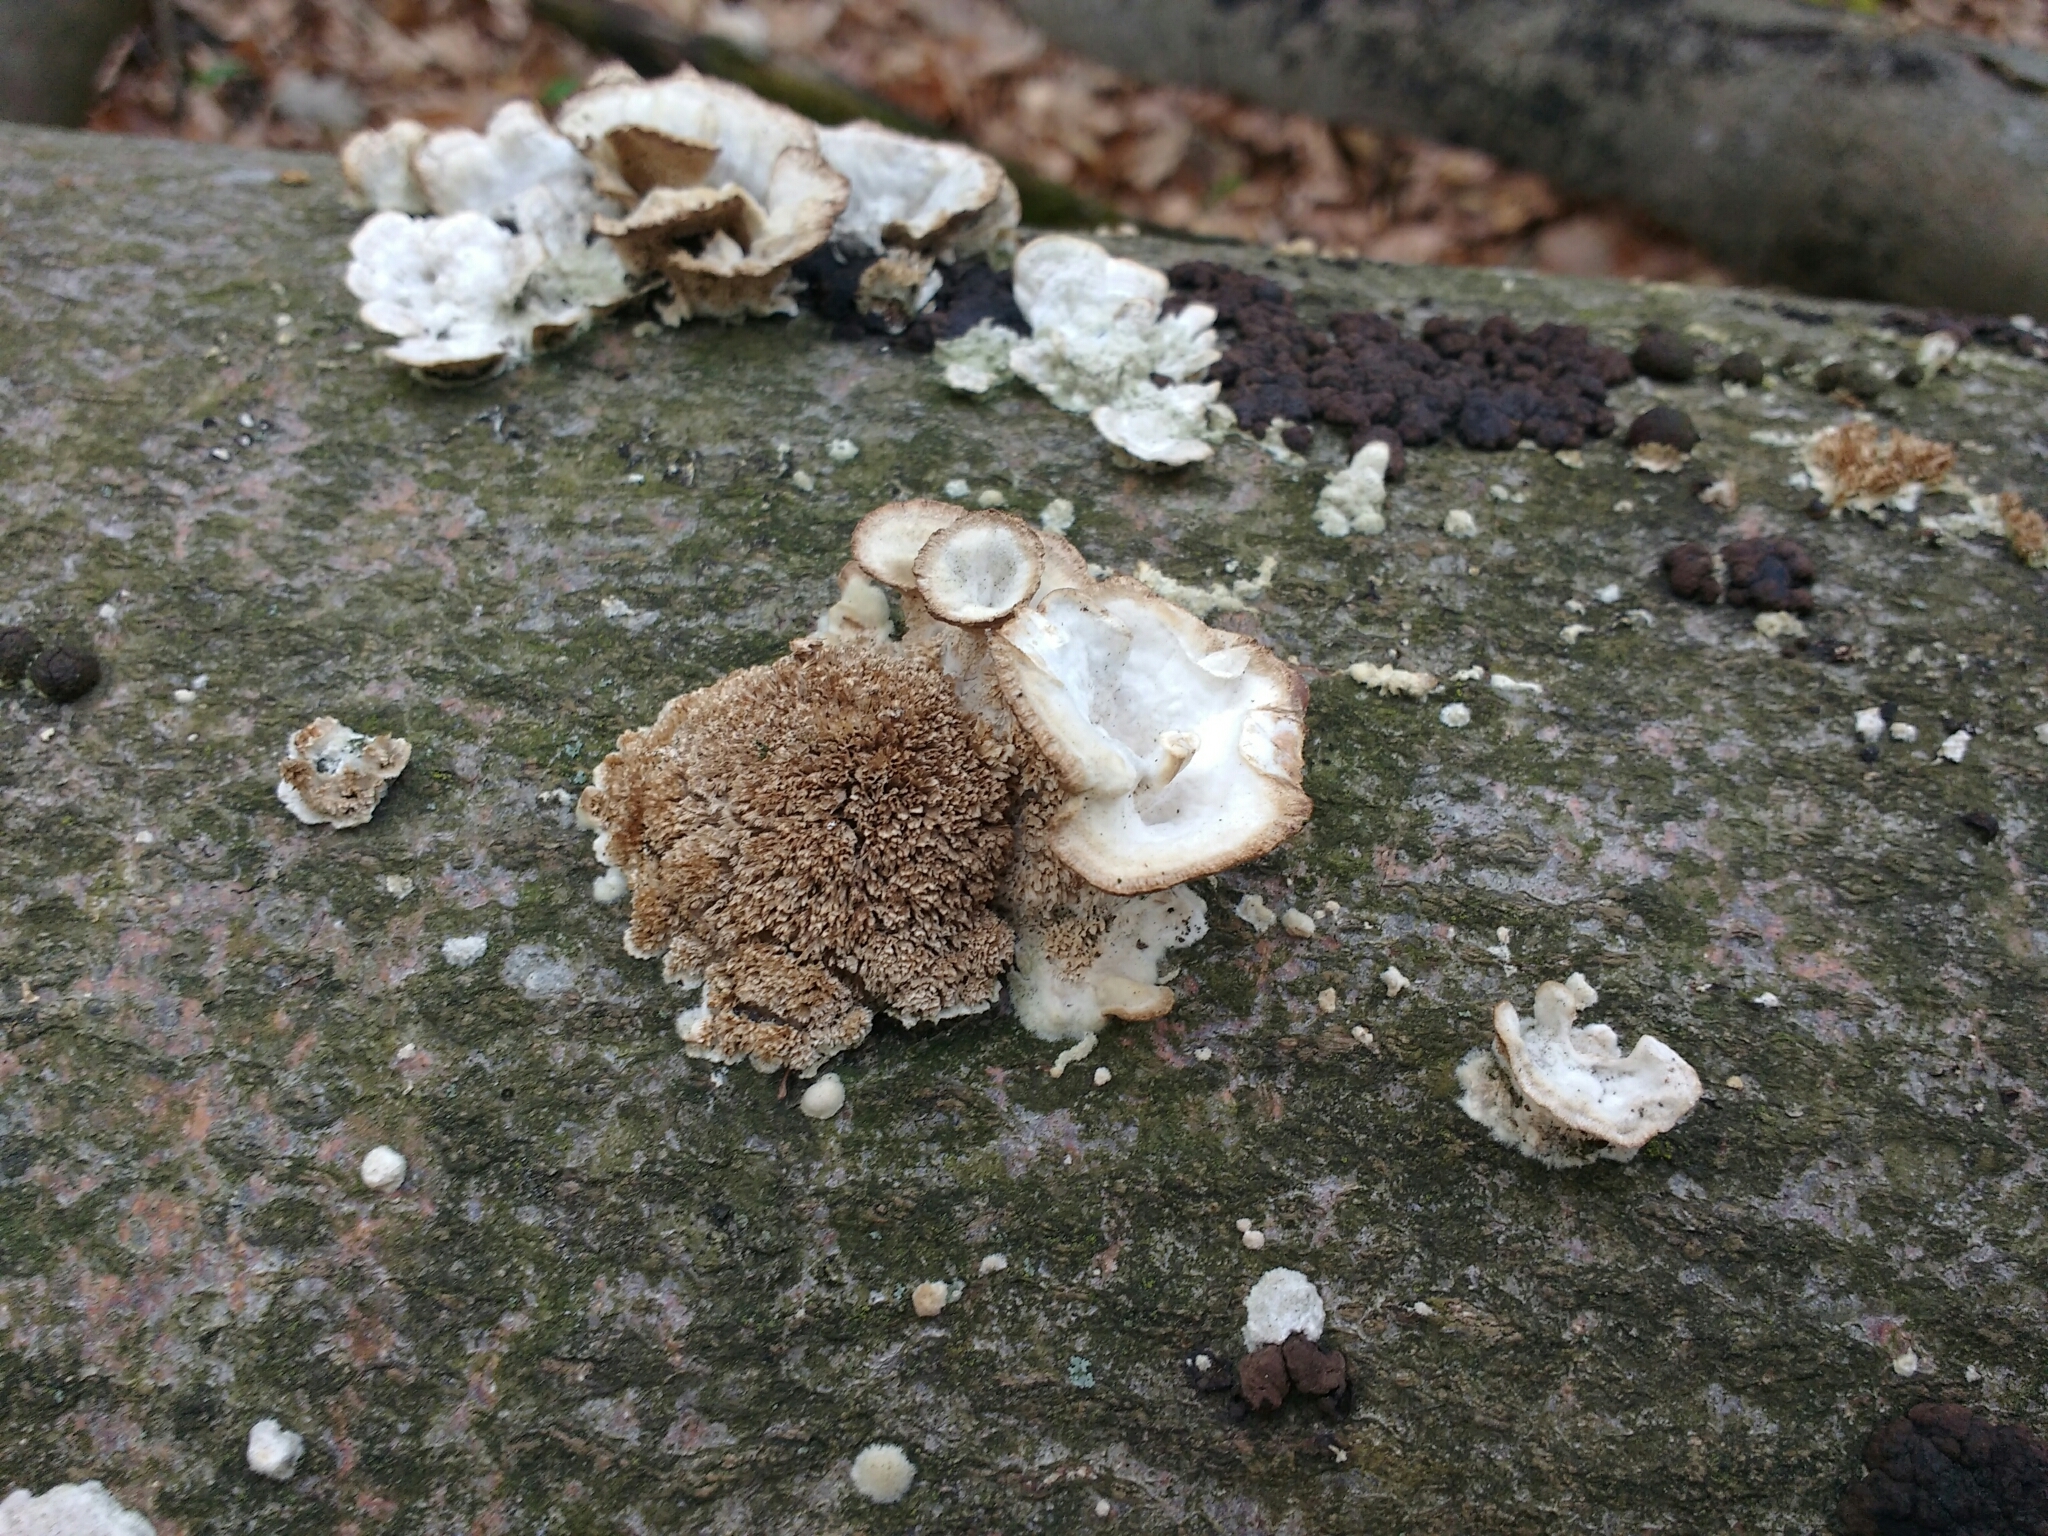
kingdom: Fungi
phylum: Basidiomycota
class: Agaricomycetes
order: Hymenochaetales
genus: Trichaptum
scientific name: Trichaptum biforme
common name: Violet-toothed polypore
